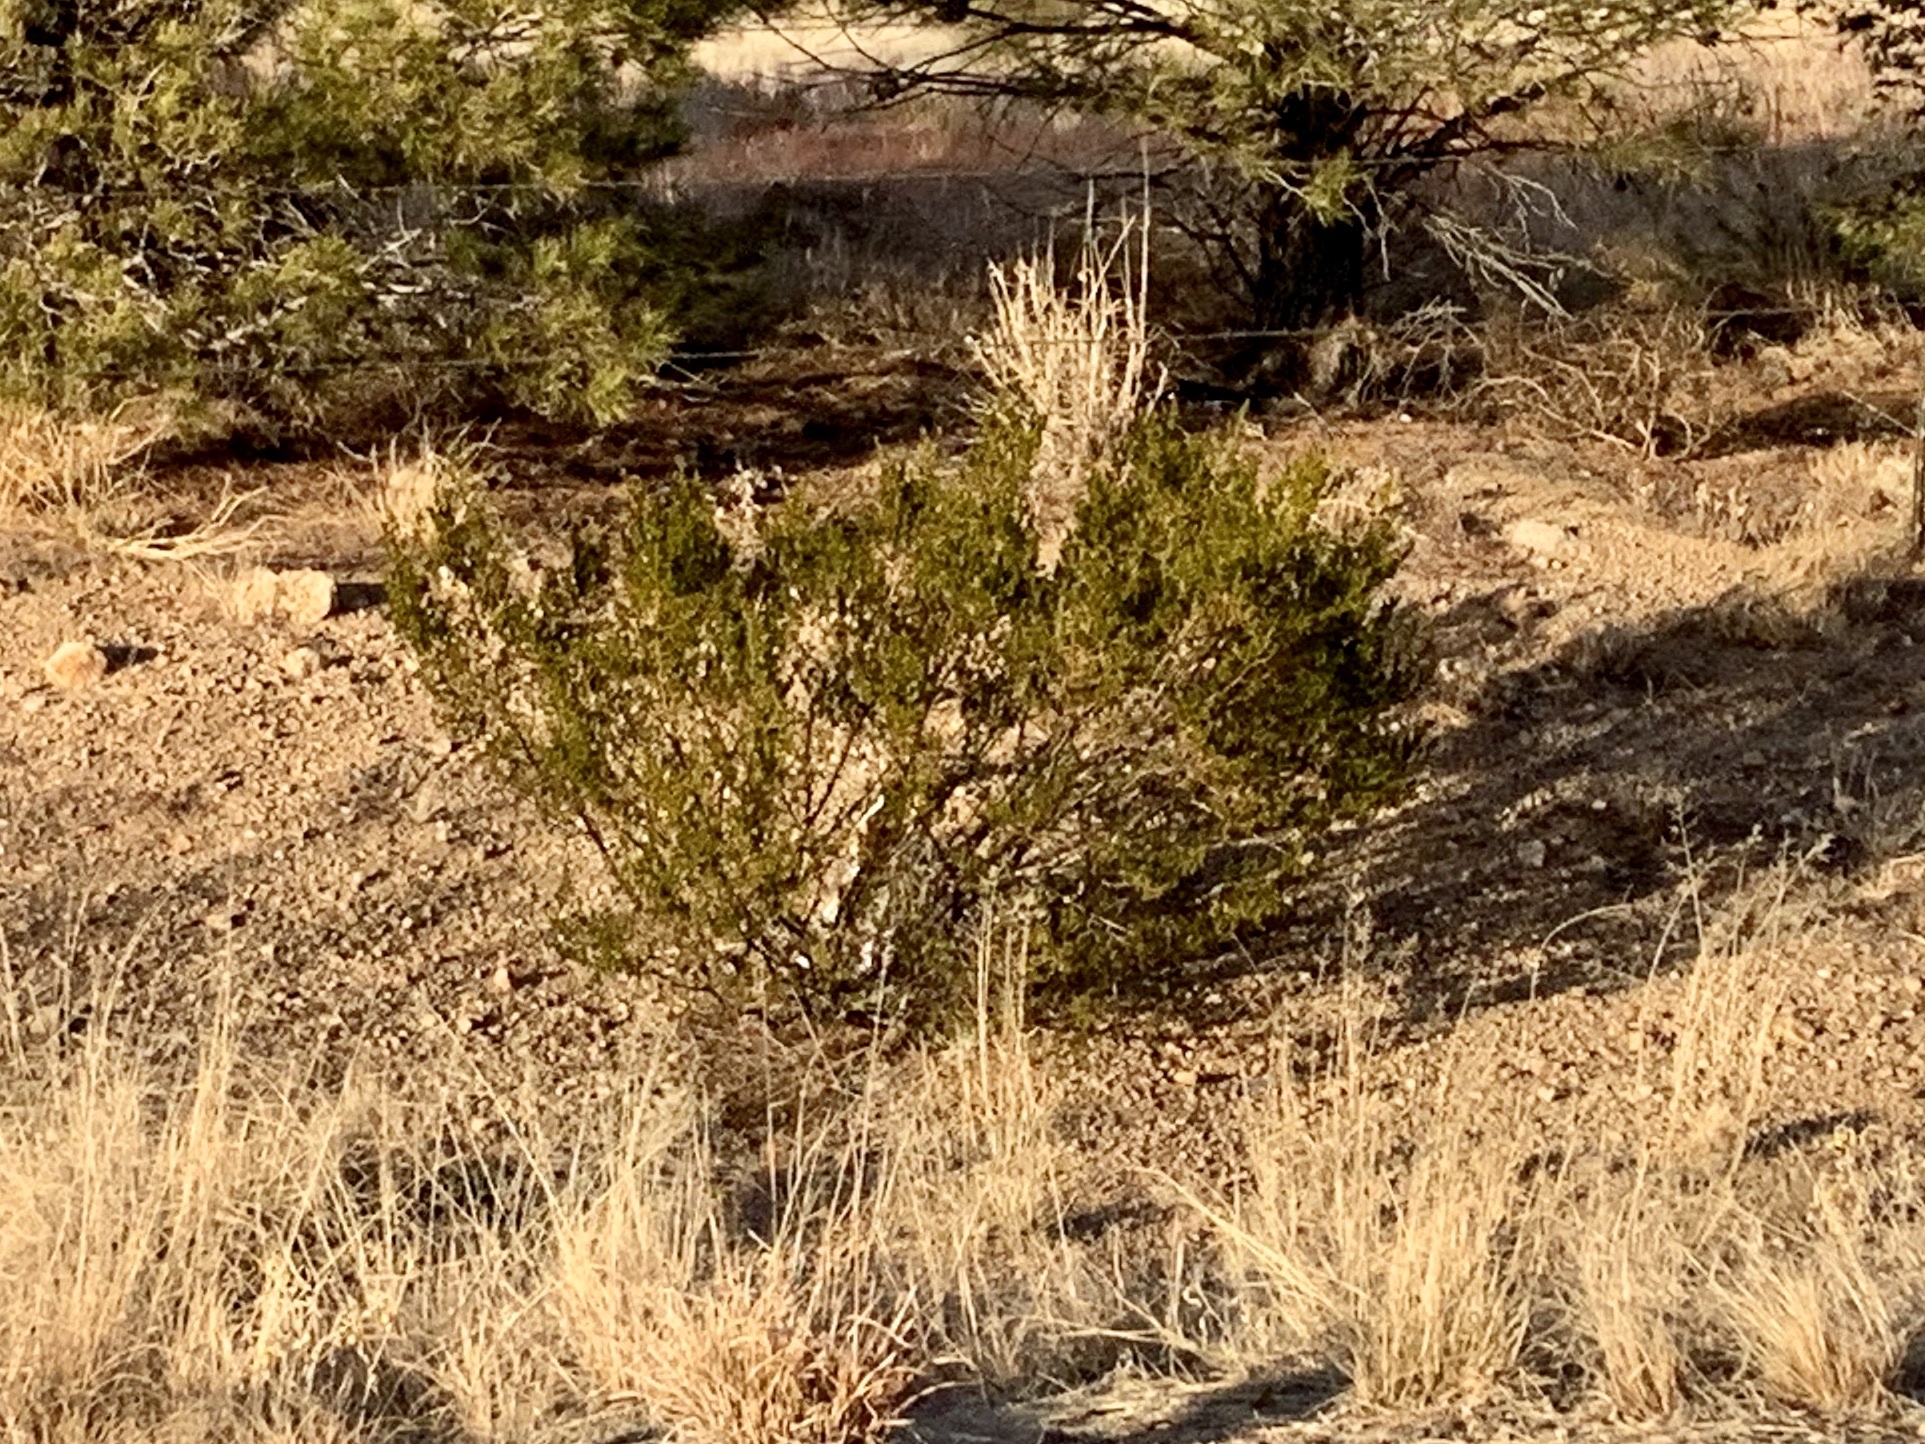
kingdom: Plantae
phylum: Tracheophyta
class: Magnoliopsida
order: Zygophyllales
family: Zygophyllaceae
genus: Larrea
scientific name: Larrea tridentata
